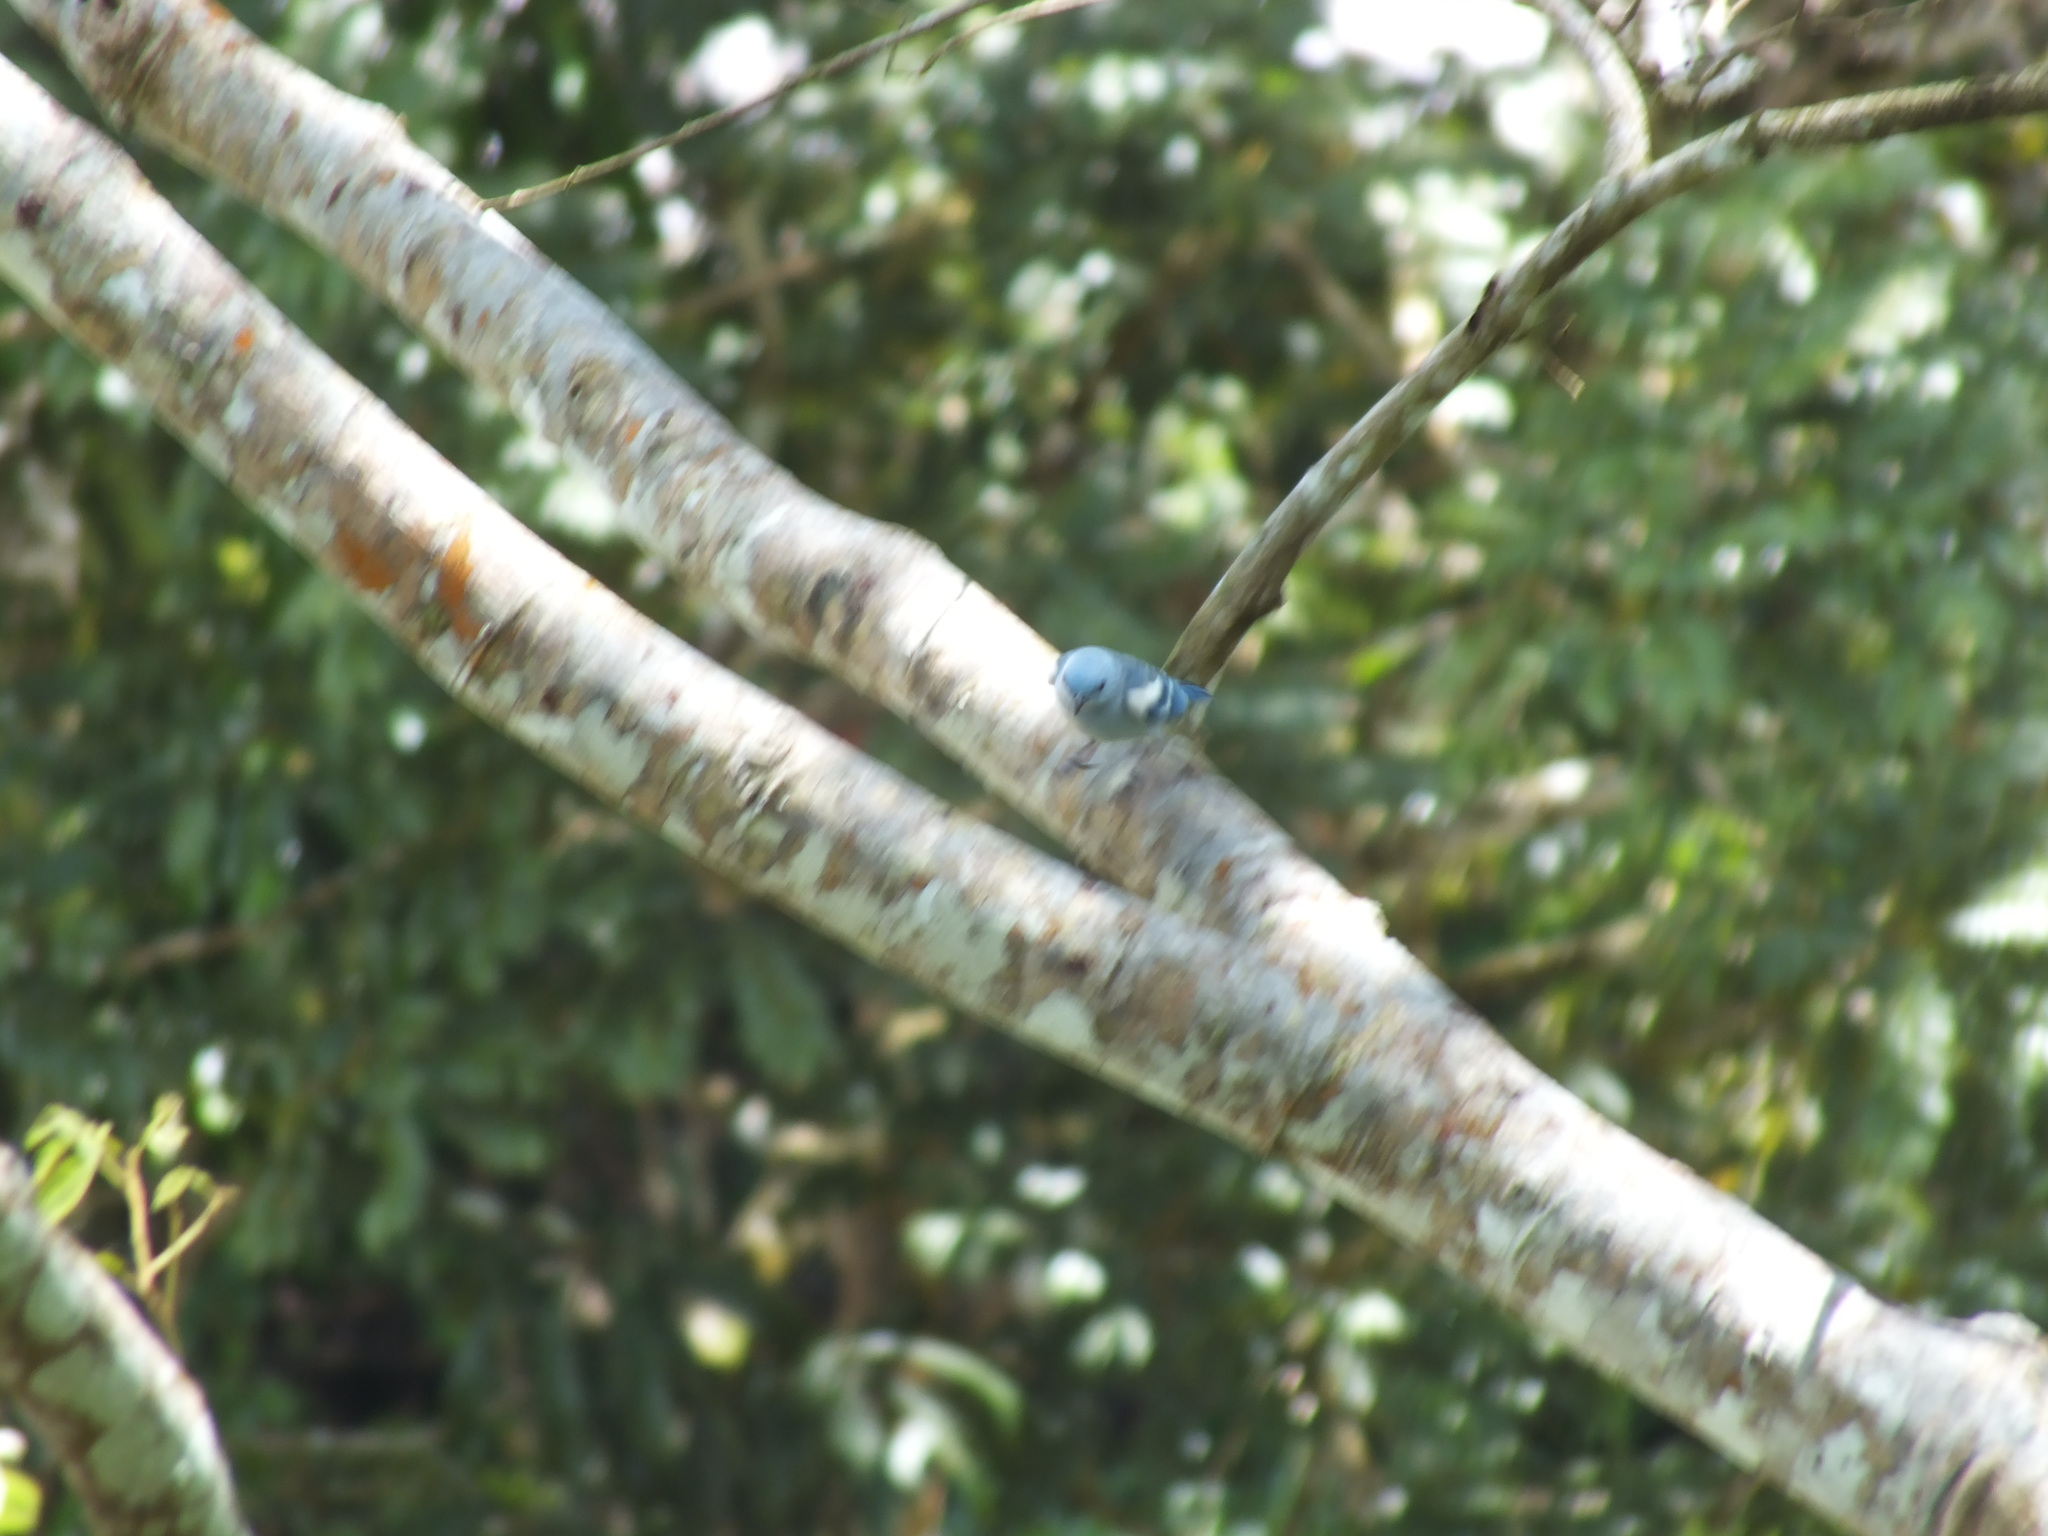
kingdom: Animalia
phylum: Chordata
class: Aves
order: Passeriformes
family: Thraupidae
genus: Thraupis
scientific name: Thraupis episcopus
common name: Blue-grey tanager
